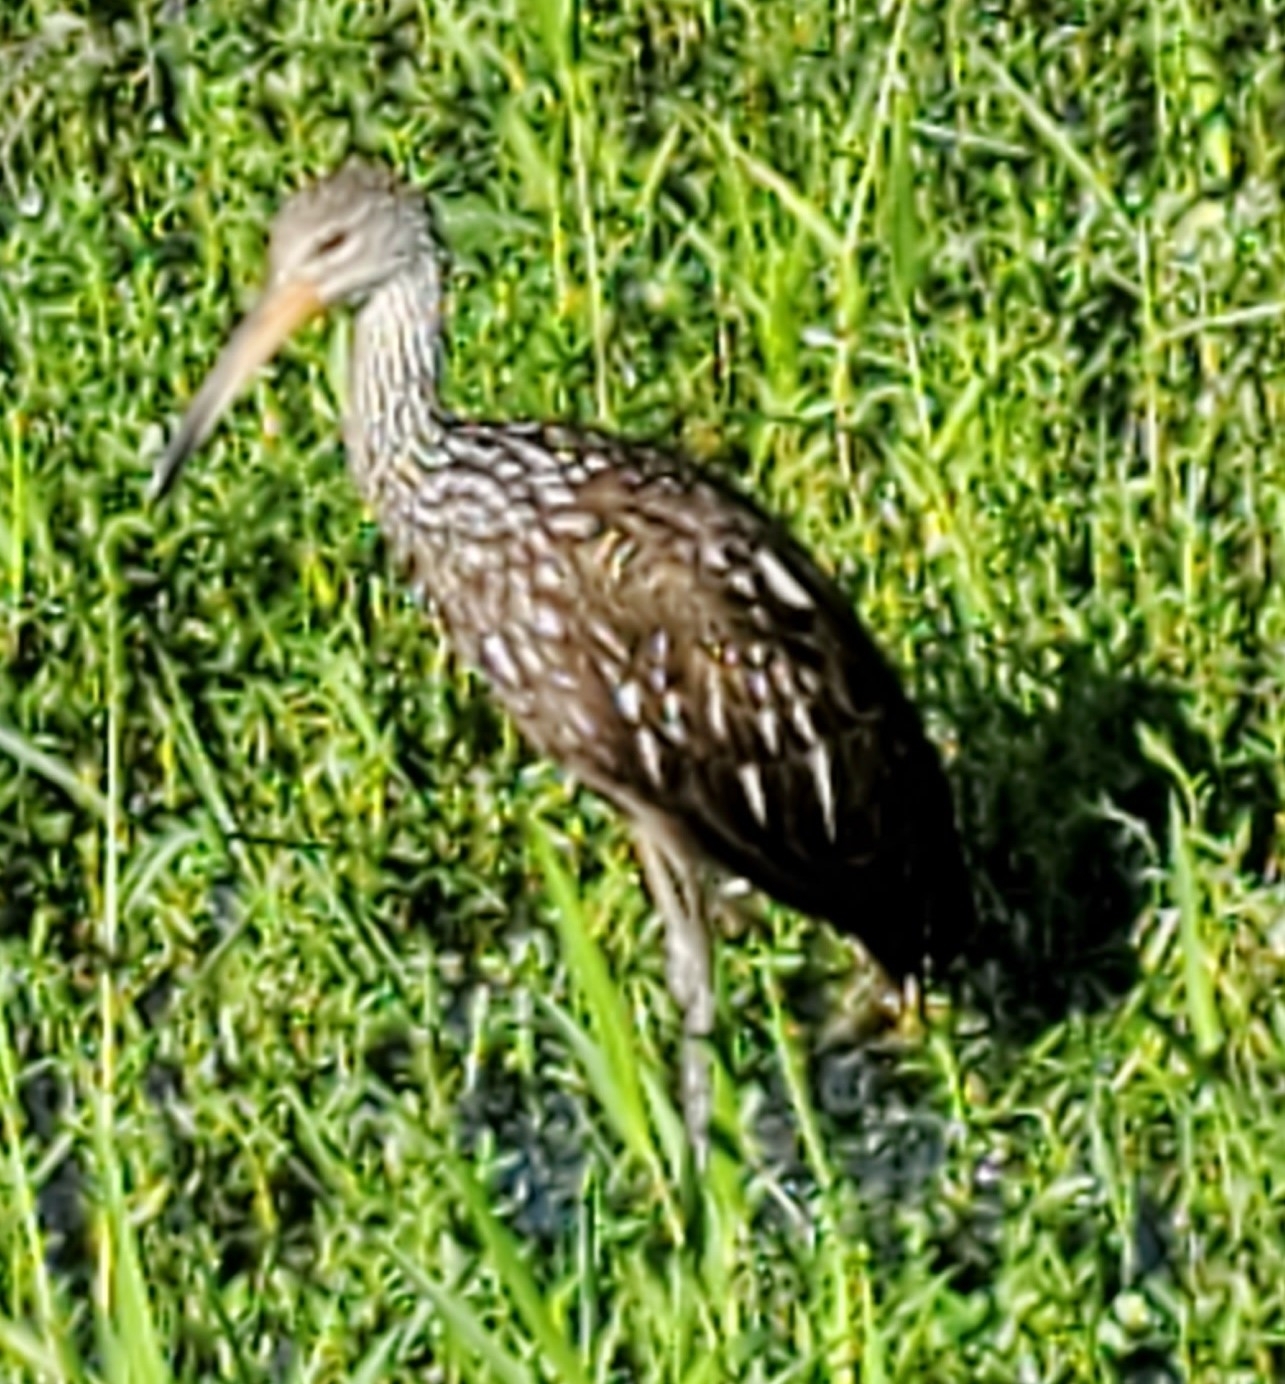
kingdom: Animalia
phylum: Chordata
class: Aves
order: Gruiformes
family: Aramidae
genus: Aramus
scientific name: Aramus guarauna
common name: Limpkin
